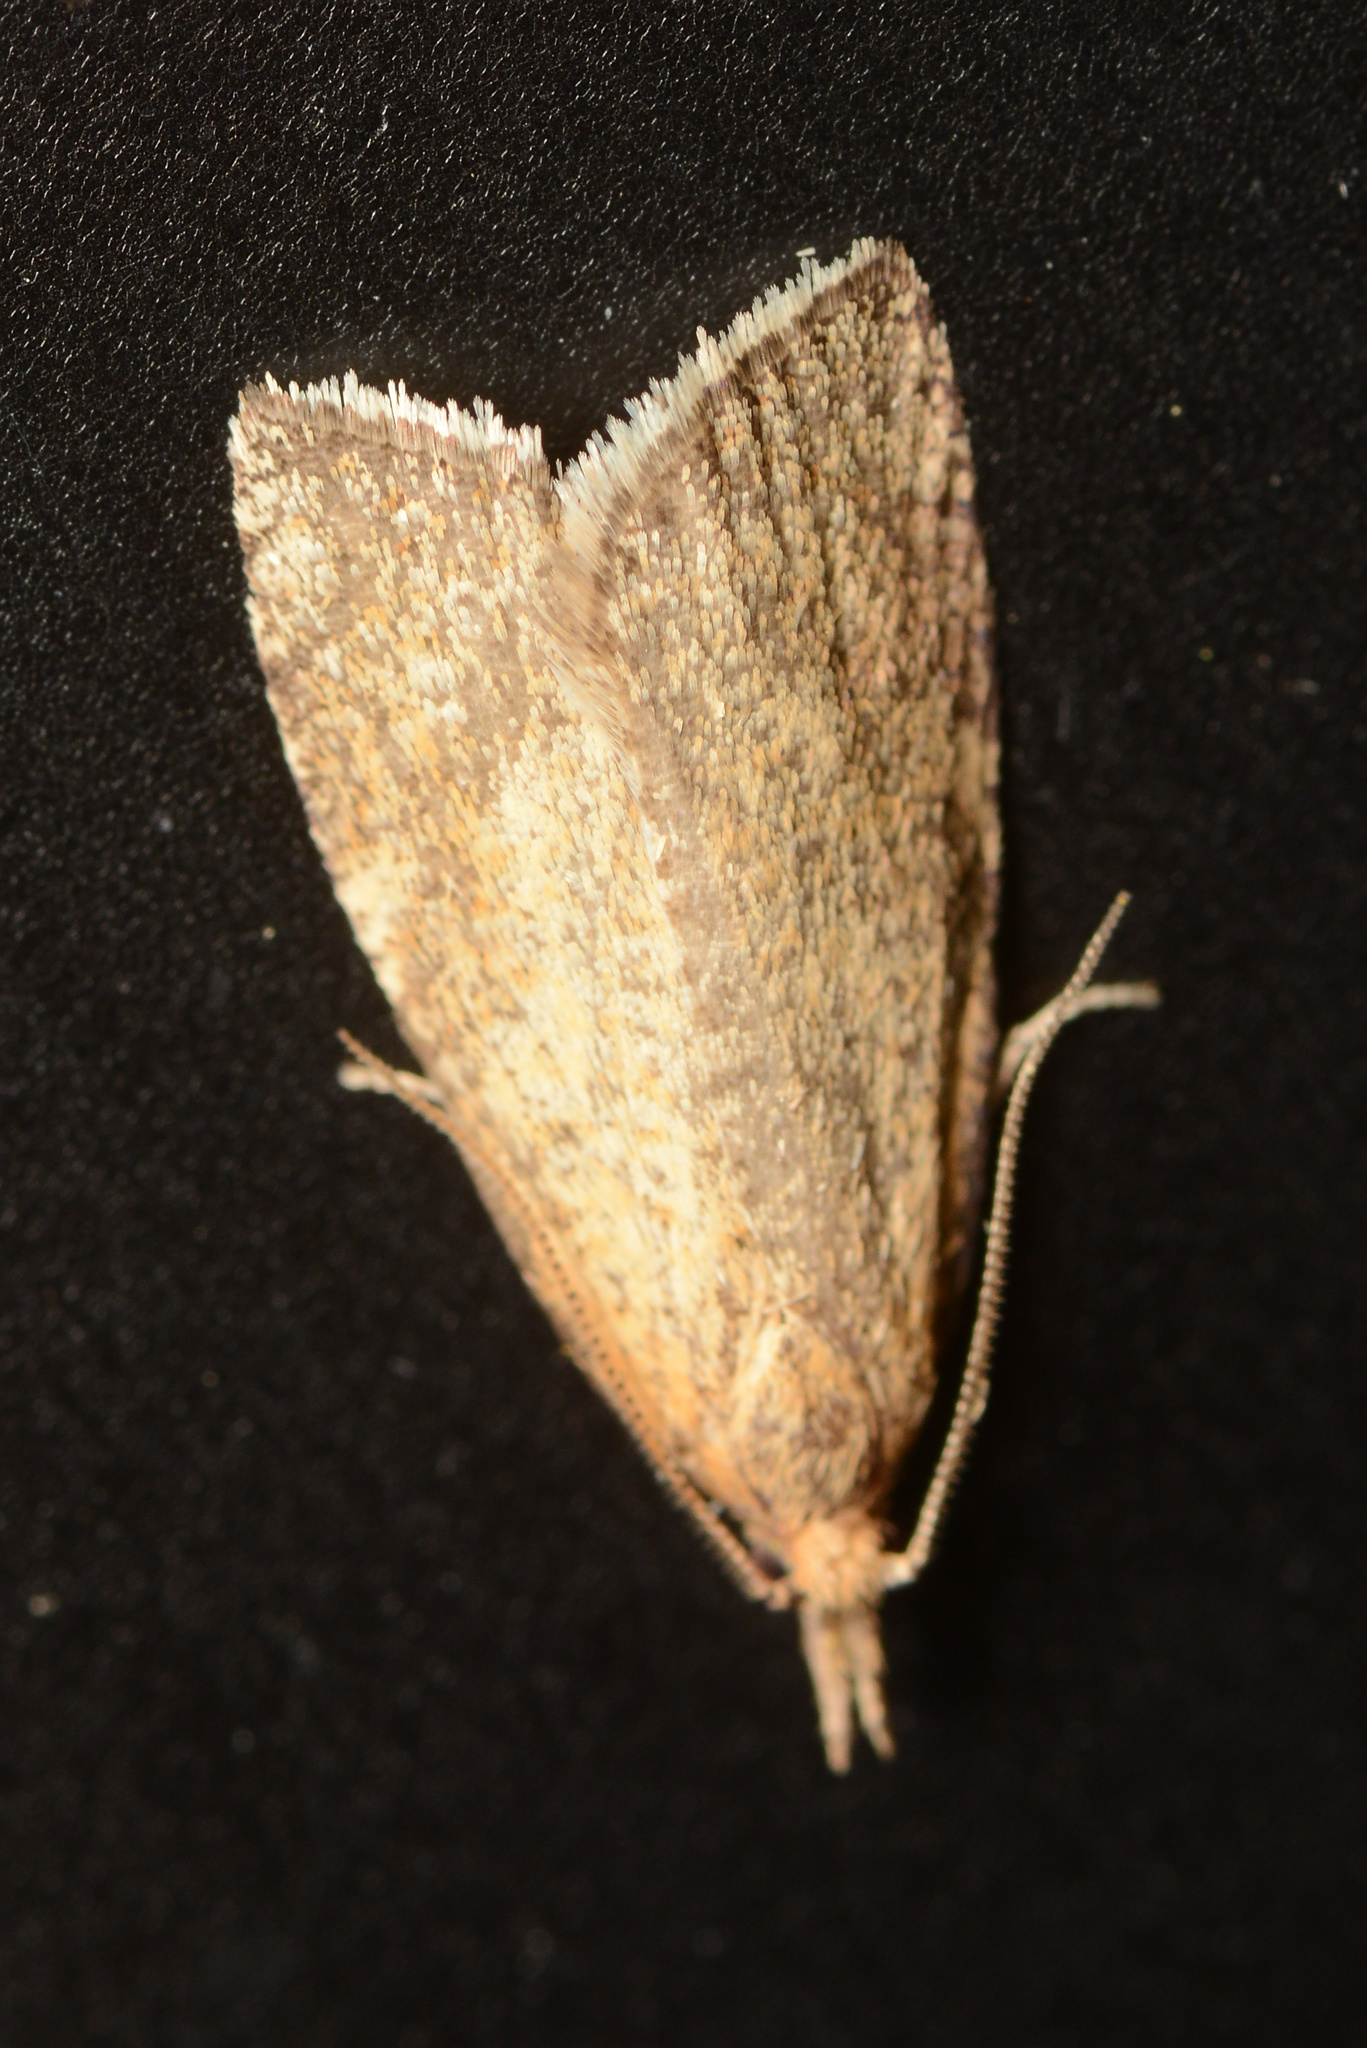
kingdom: Animalia
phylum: Arthropoda
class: Insecta
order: Lepidoptera
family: Tortricidae
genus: Catamacta
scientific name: Catamacta lotinana
